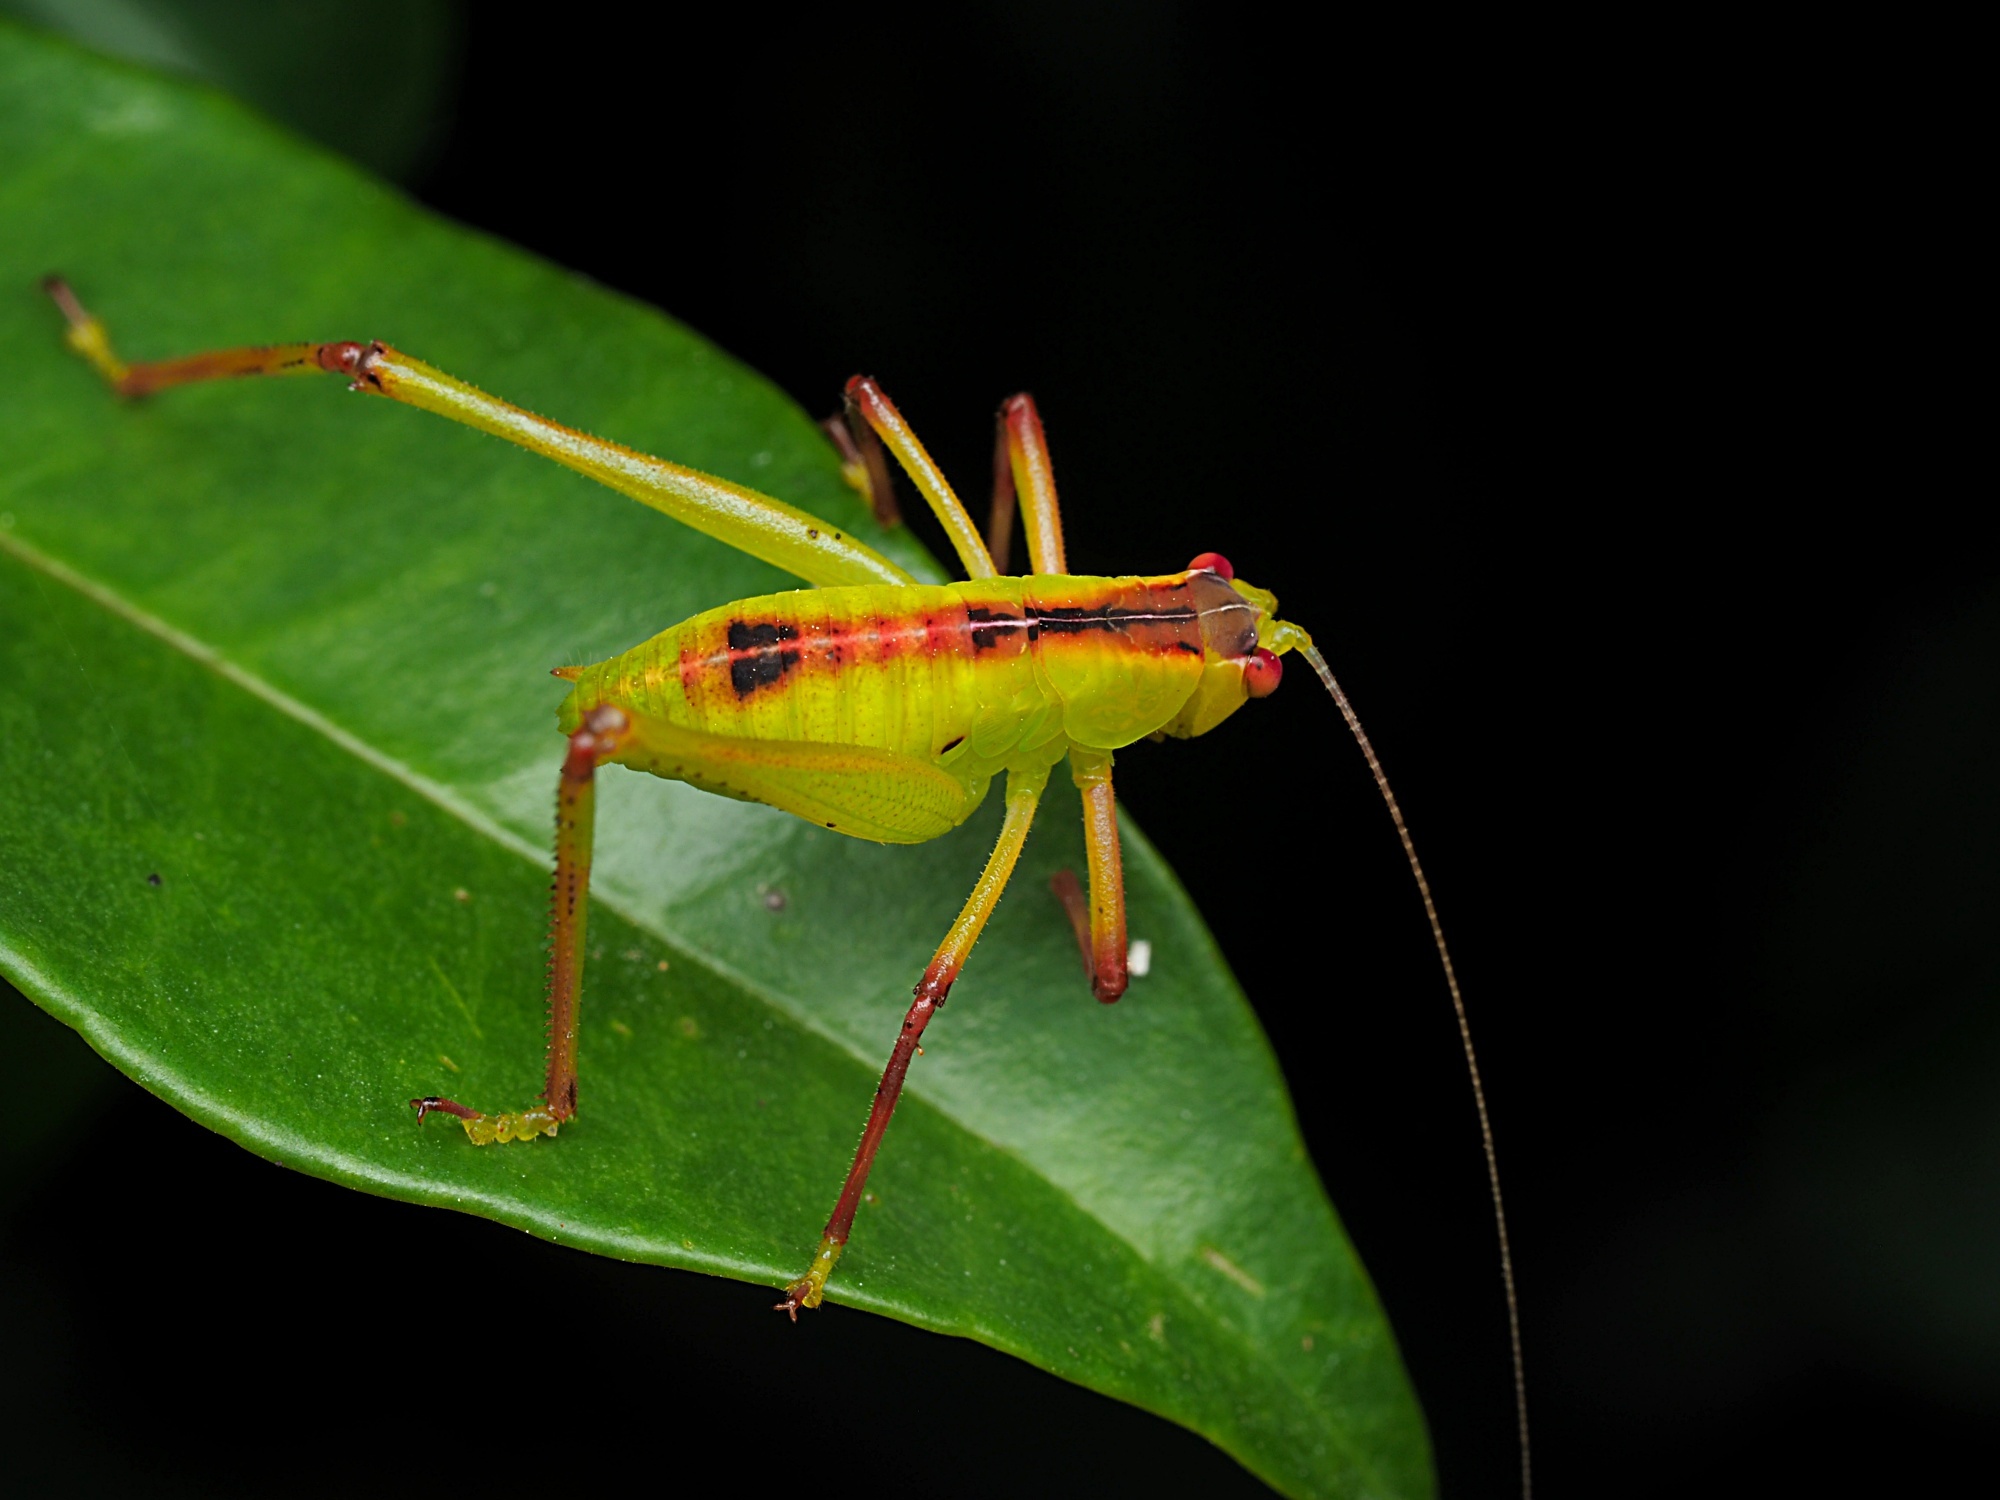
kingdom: Animalia
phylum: Arthropoda
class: Insecta
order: Orthoptera
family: Tettigoniidae
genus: Caedicia
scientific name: Caedicia simplex
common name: Common garden katydid
